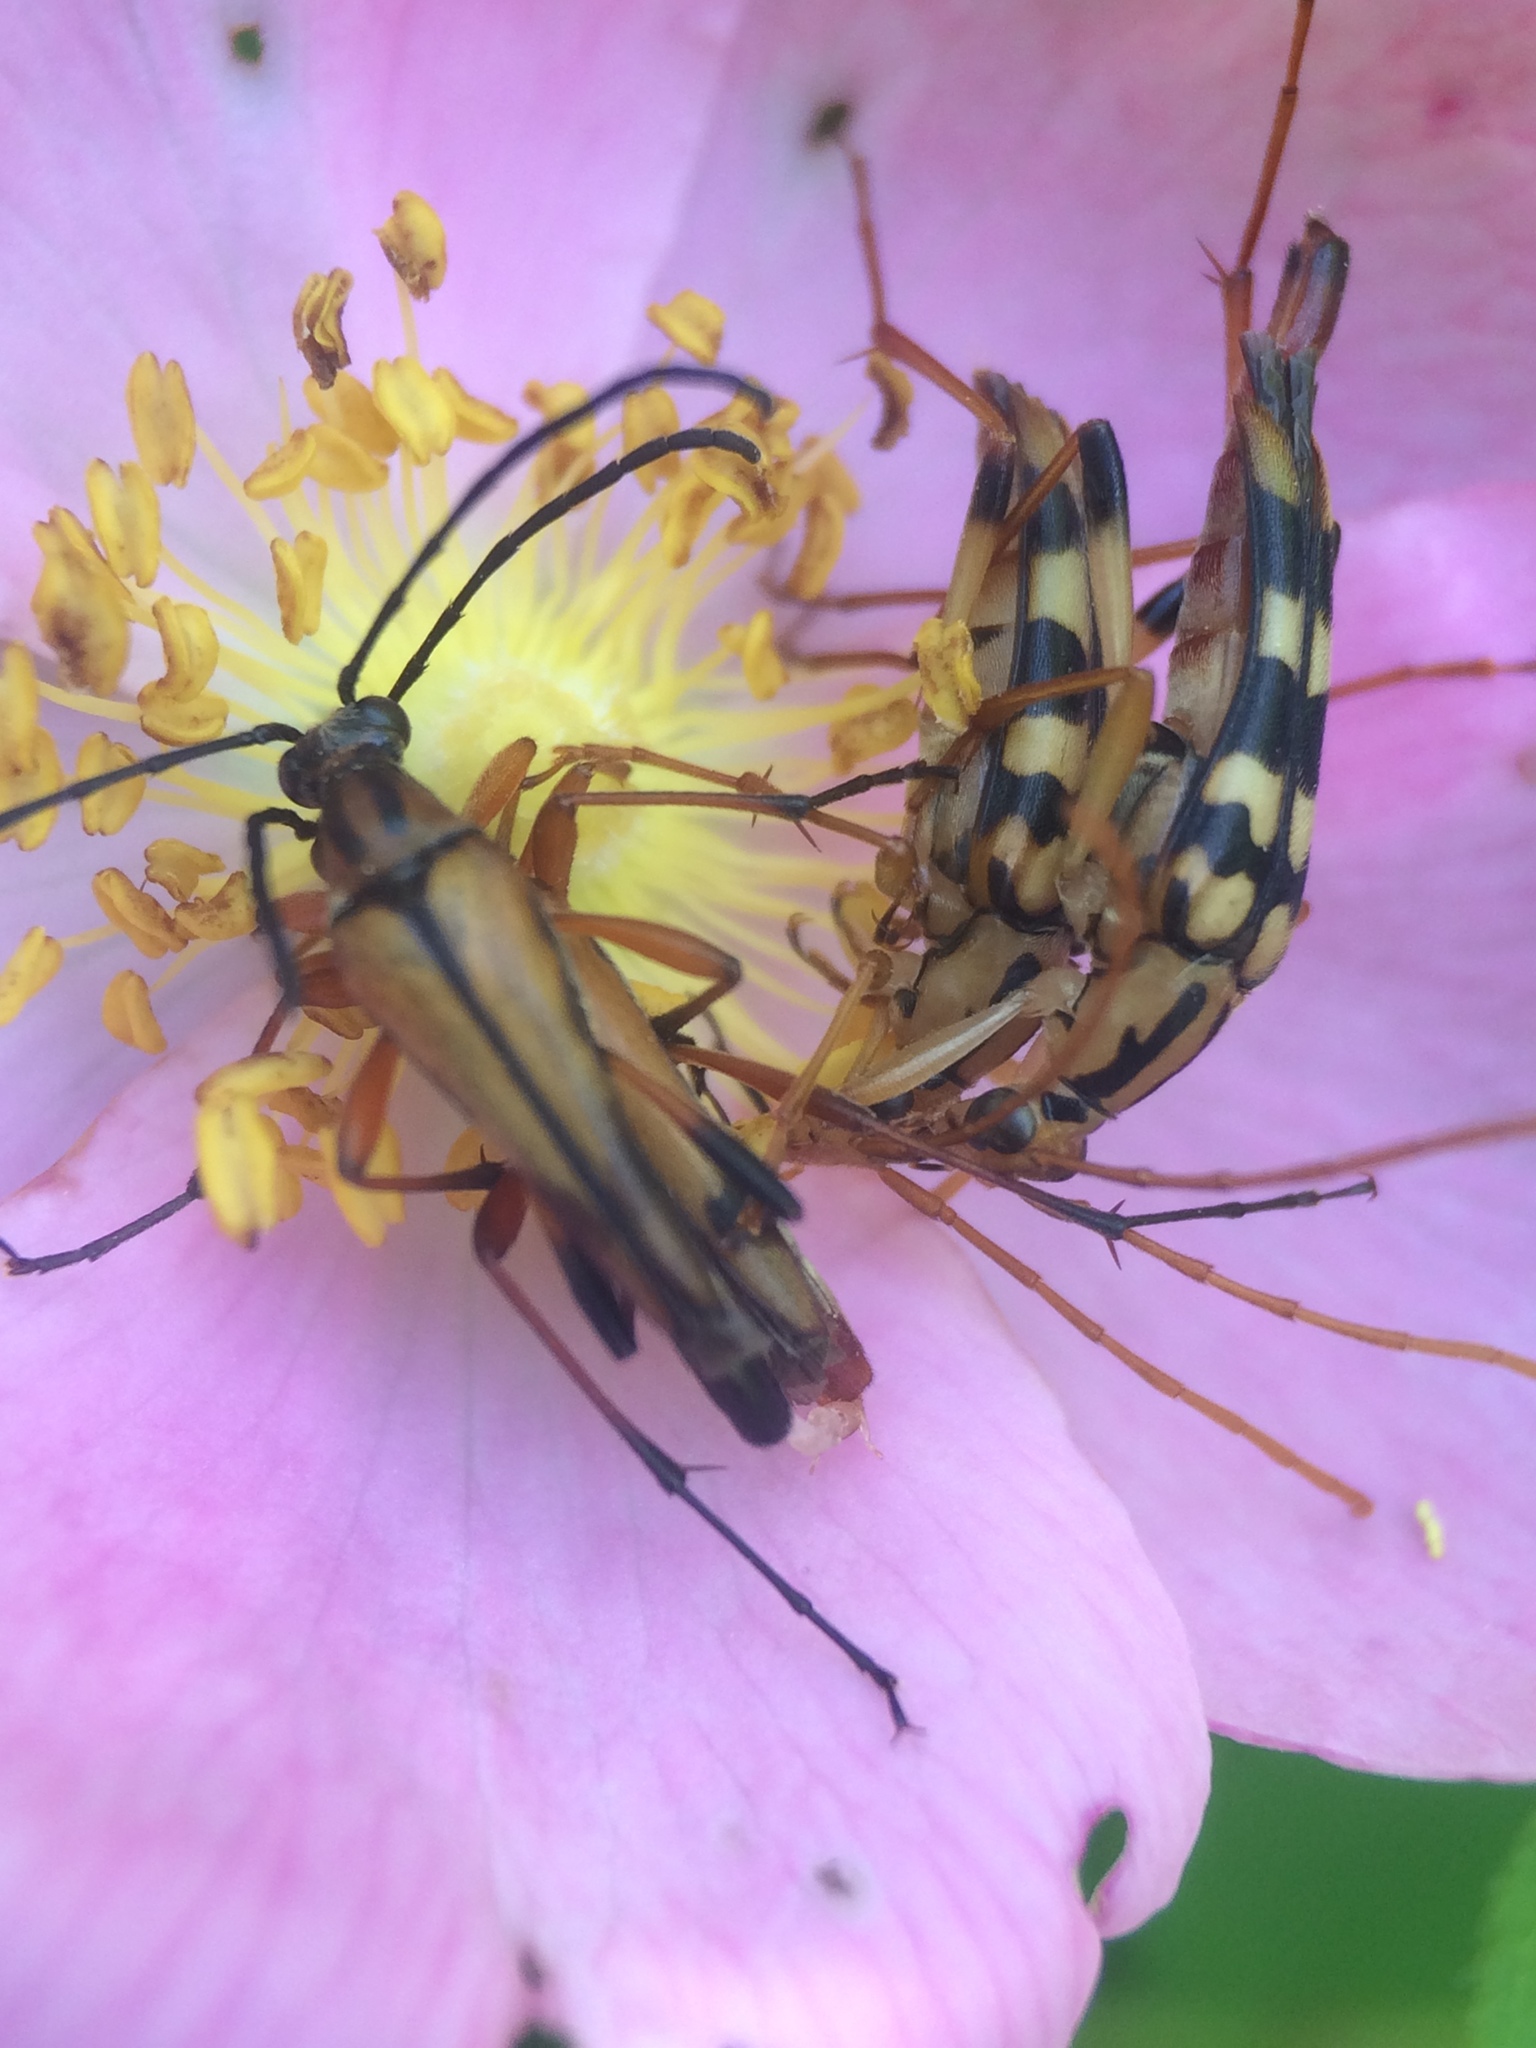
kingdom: Animalia
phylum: Arthropoda
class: Insecta
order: Coleoptera
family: Cerambycidae
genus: Strangalia
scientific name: Strangalia luteicornis
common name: Yellow-horned flower longhorn beetle
